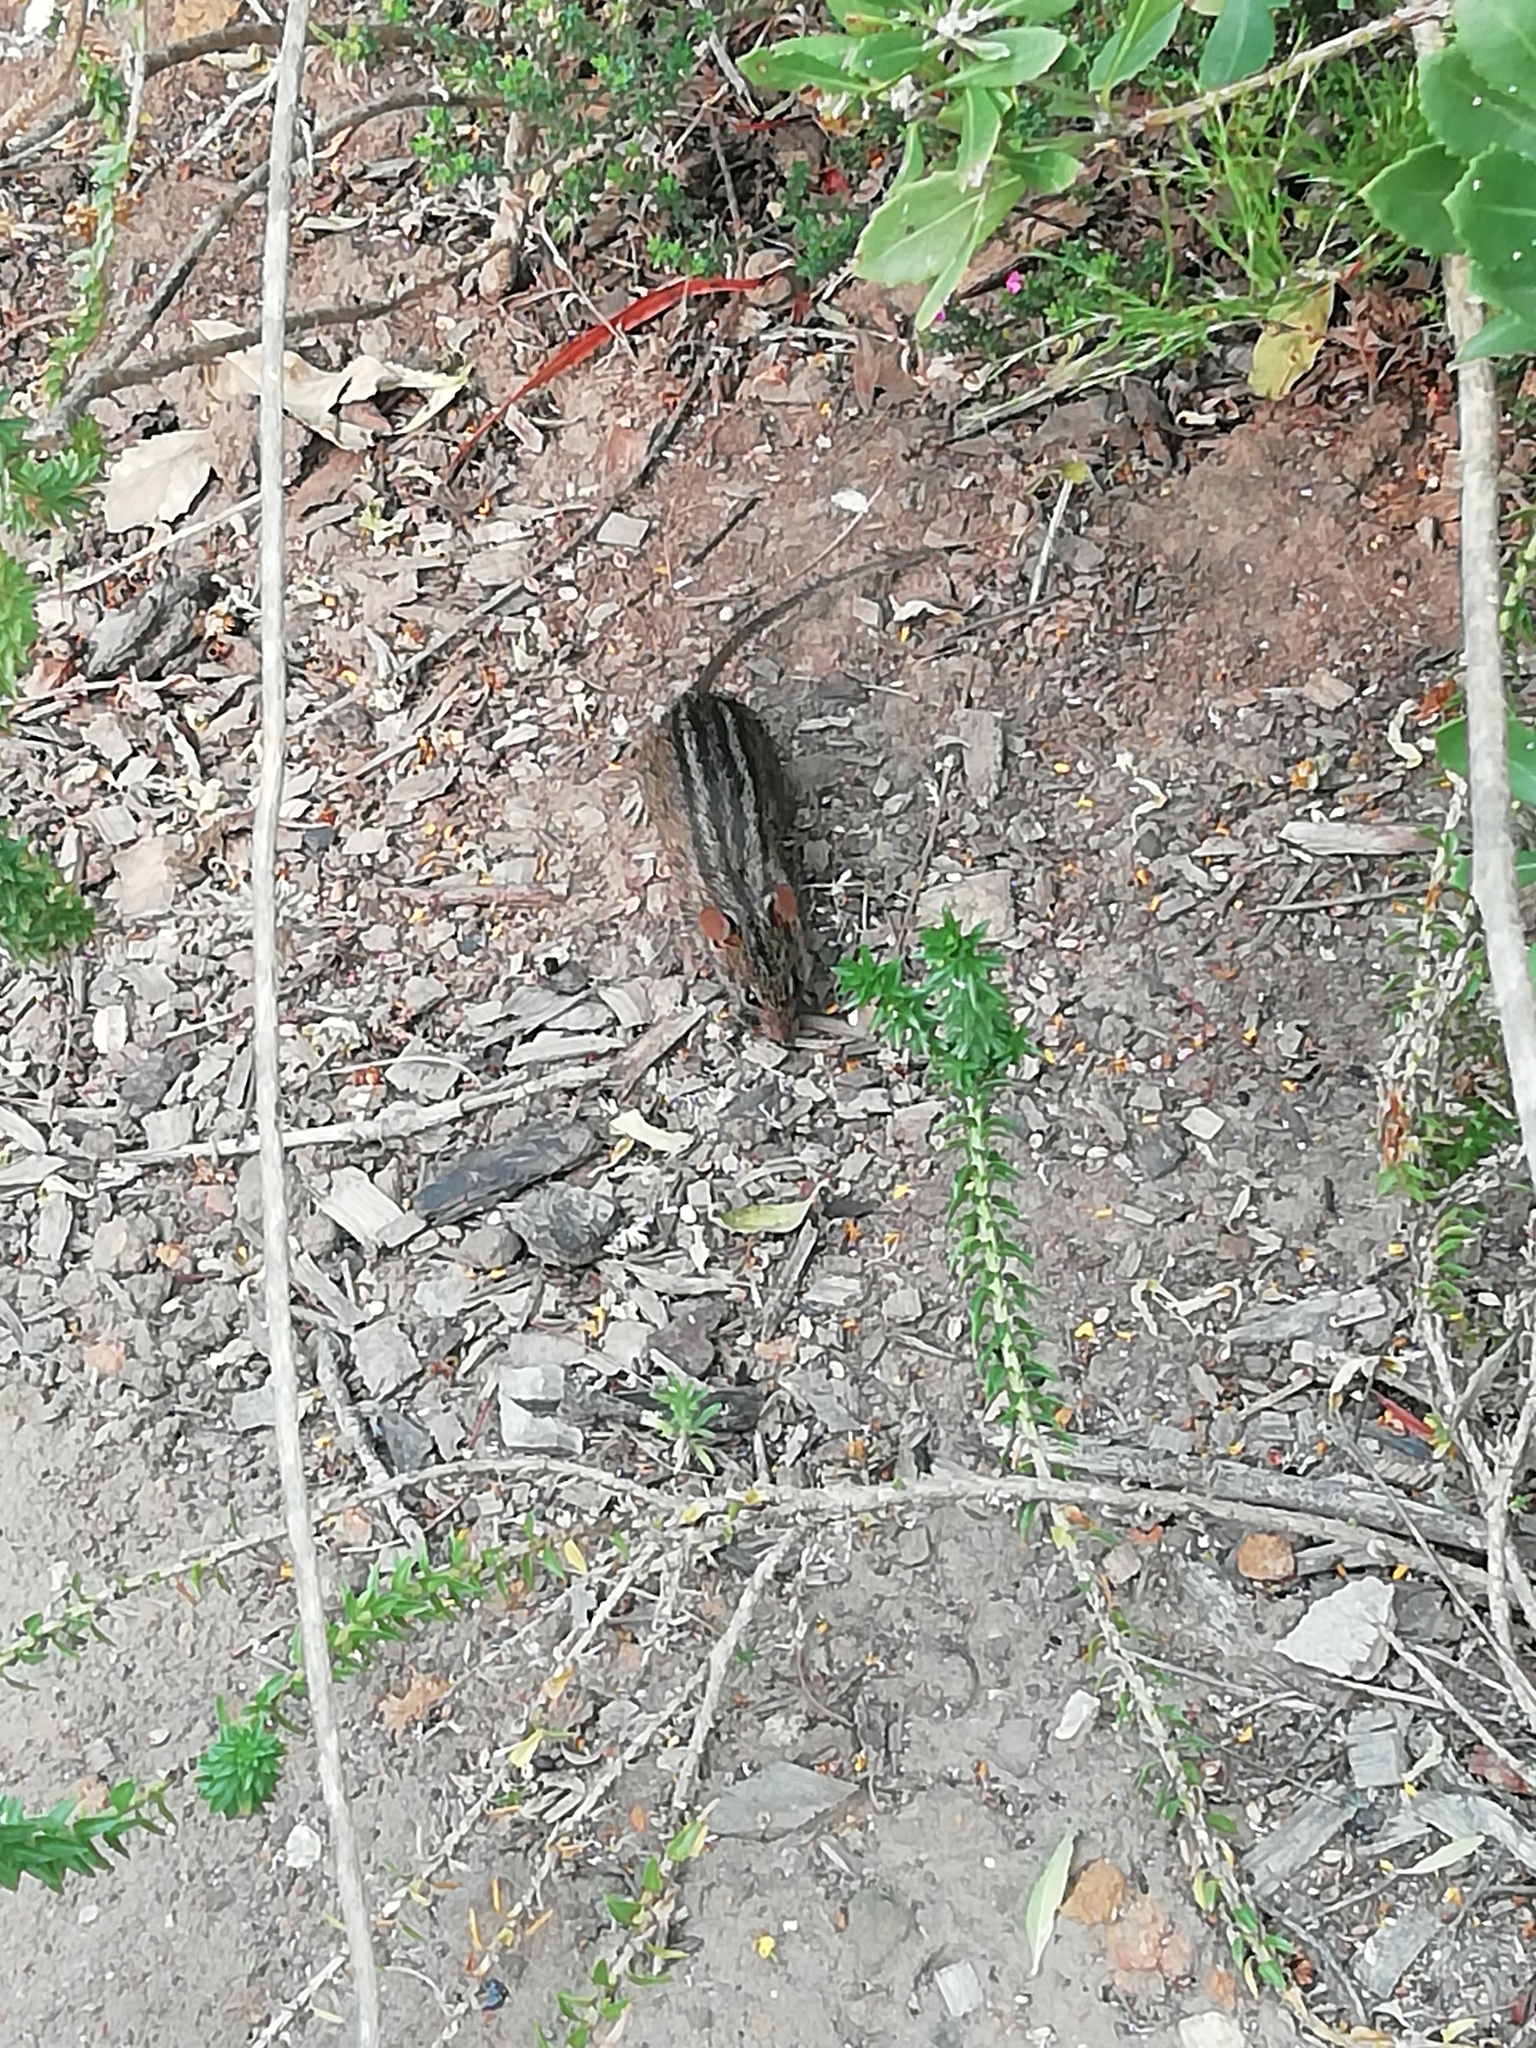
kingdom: Animalia
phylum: Chordata
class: Mammalia
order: Rodentia
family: Muridae
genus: Rhabdomys
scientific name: Rhabdomys pumilio
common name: Xeric four-striped grass rat
